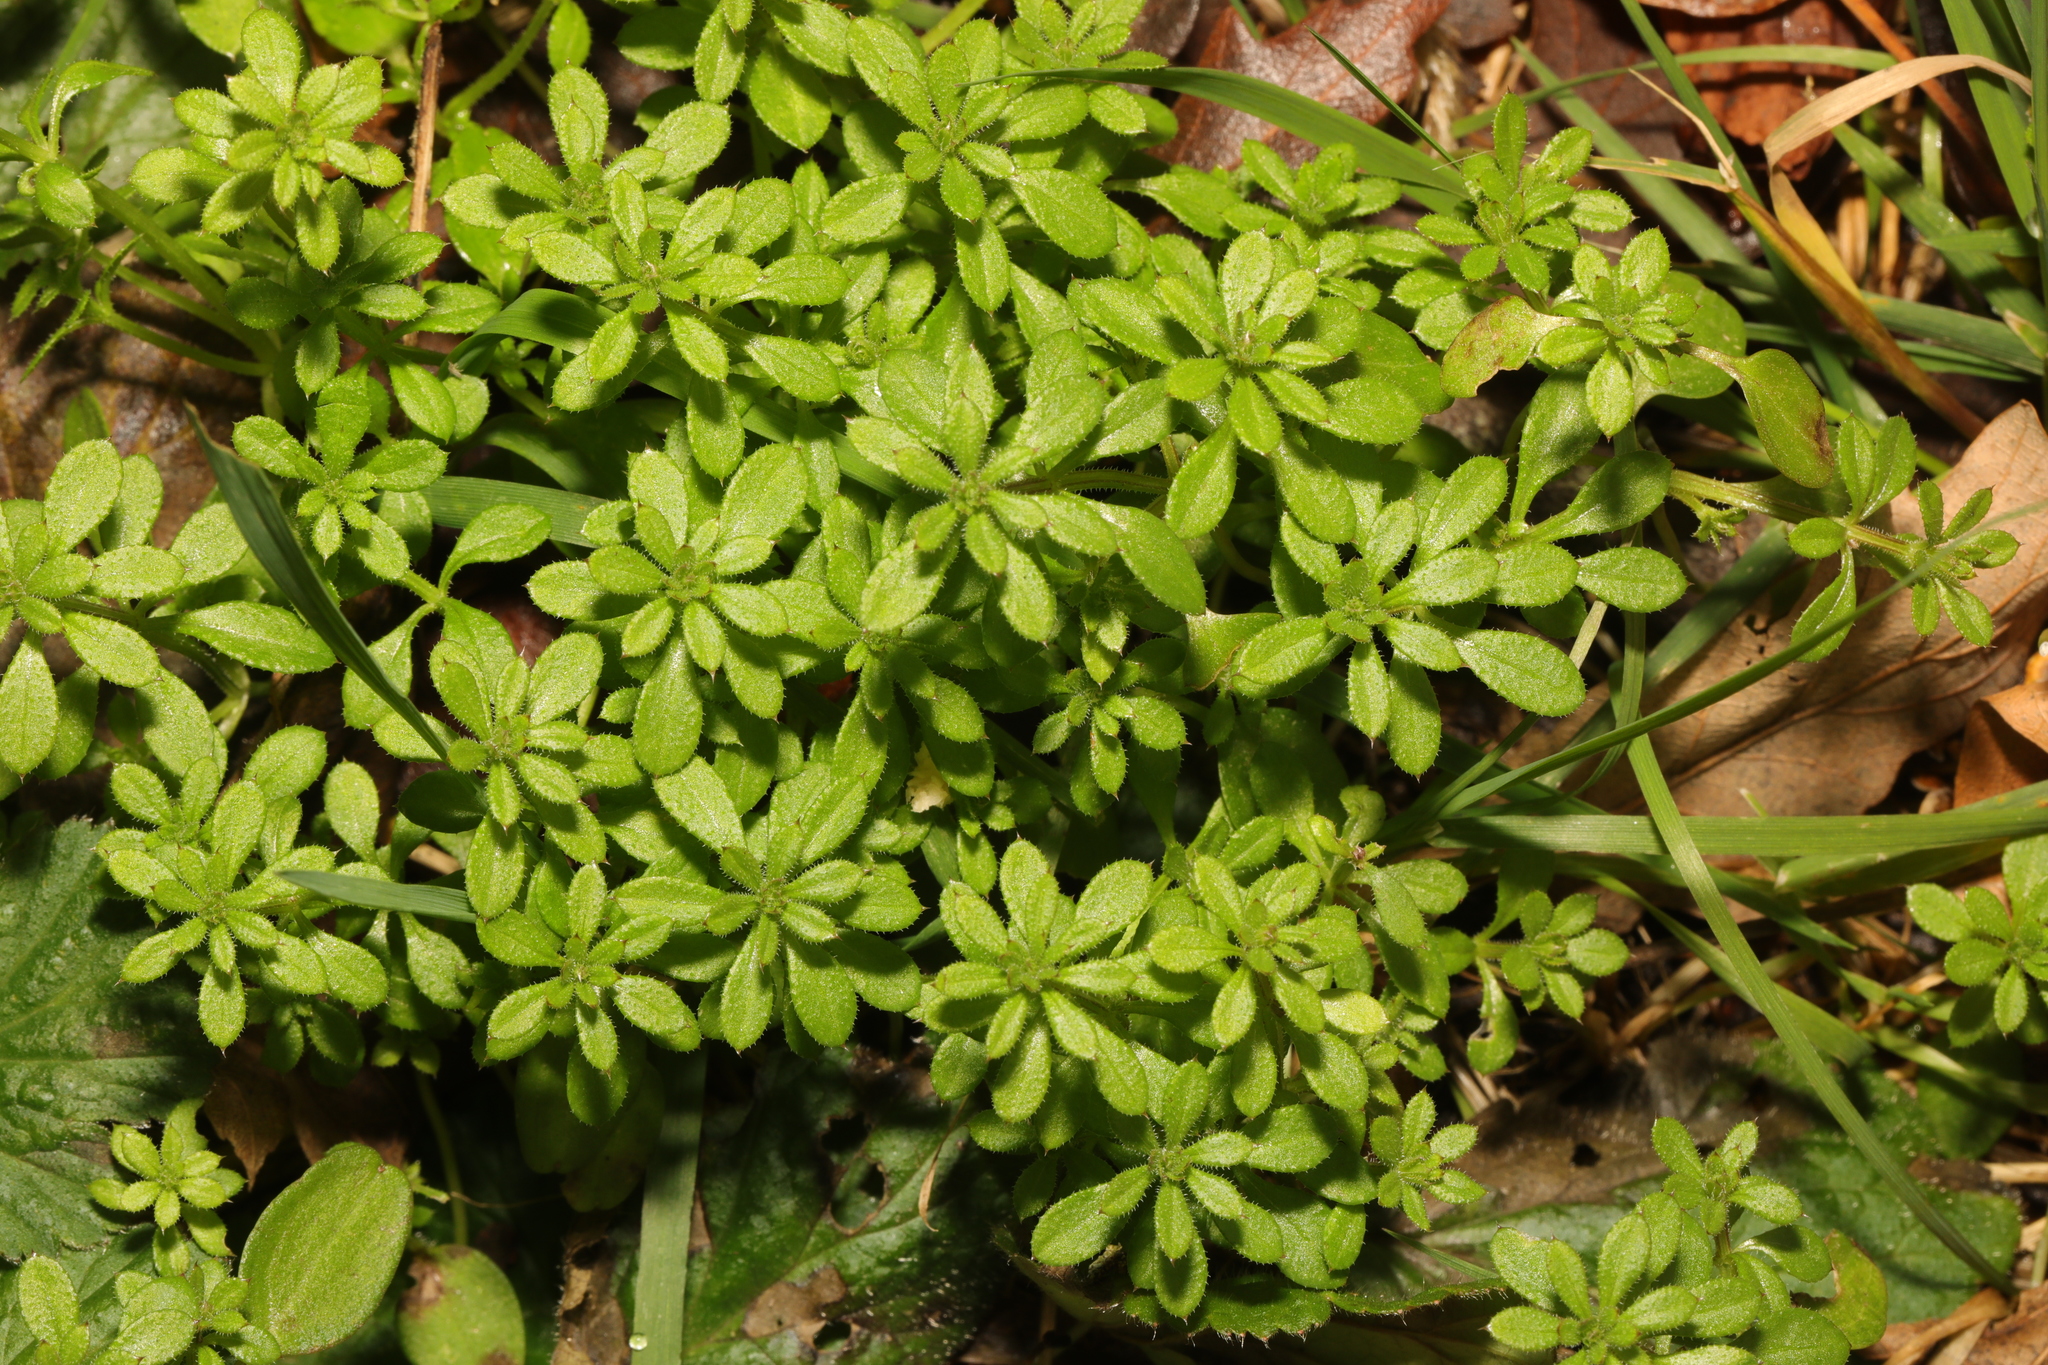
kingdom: Plantae
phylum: Tracheophyta
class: Magnoliopsida
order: Gentianales
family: Rubiaceae
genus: Galium
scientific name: Galium aparine
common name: Cleavers
